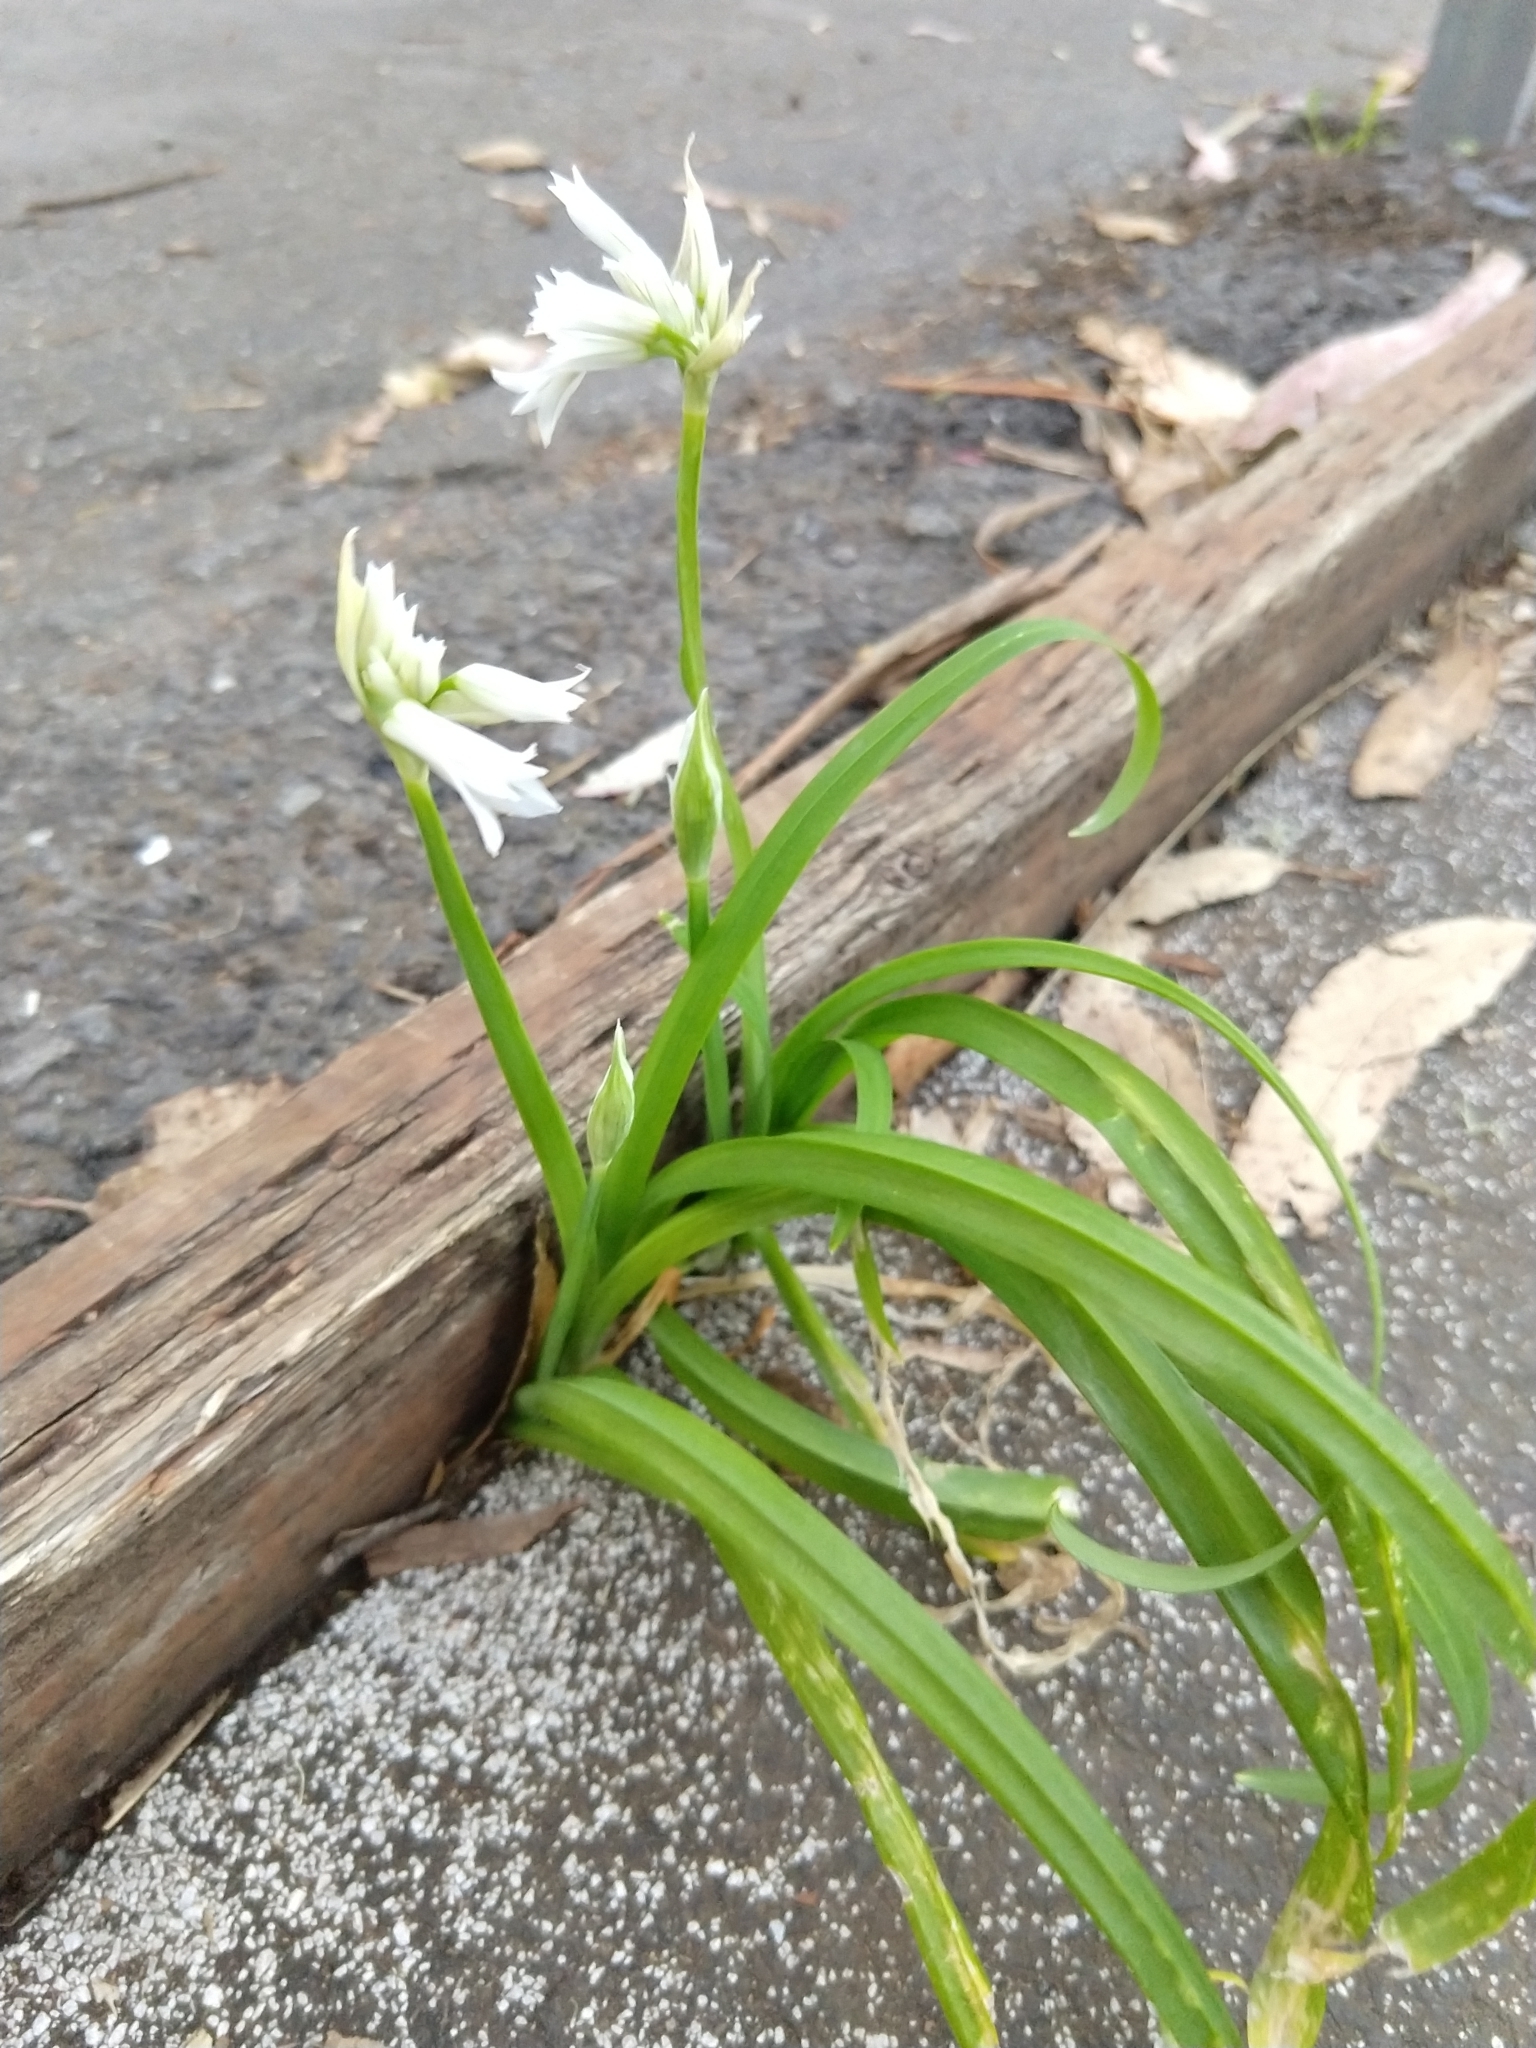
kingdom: Plantae
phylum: Tracheophyta
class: Liliopsida
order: Asparagales
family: Amaryllidaceae
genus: Allium
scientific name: Allium triquetrum
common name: Three-cornered garlic
